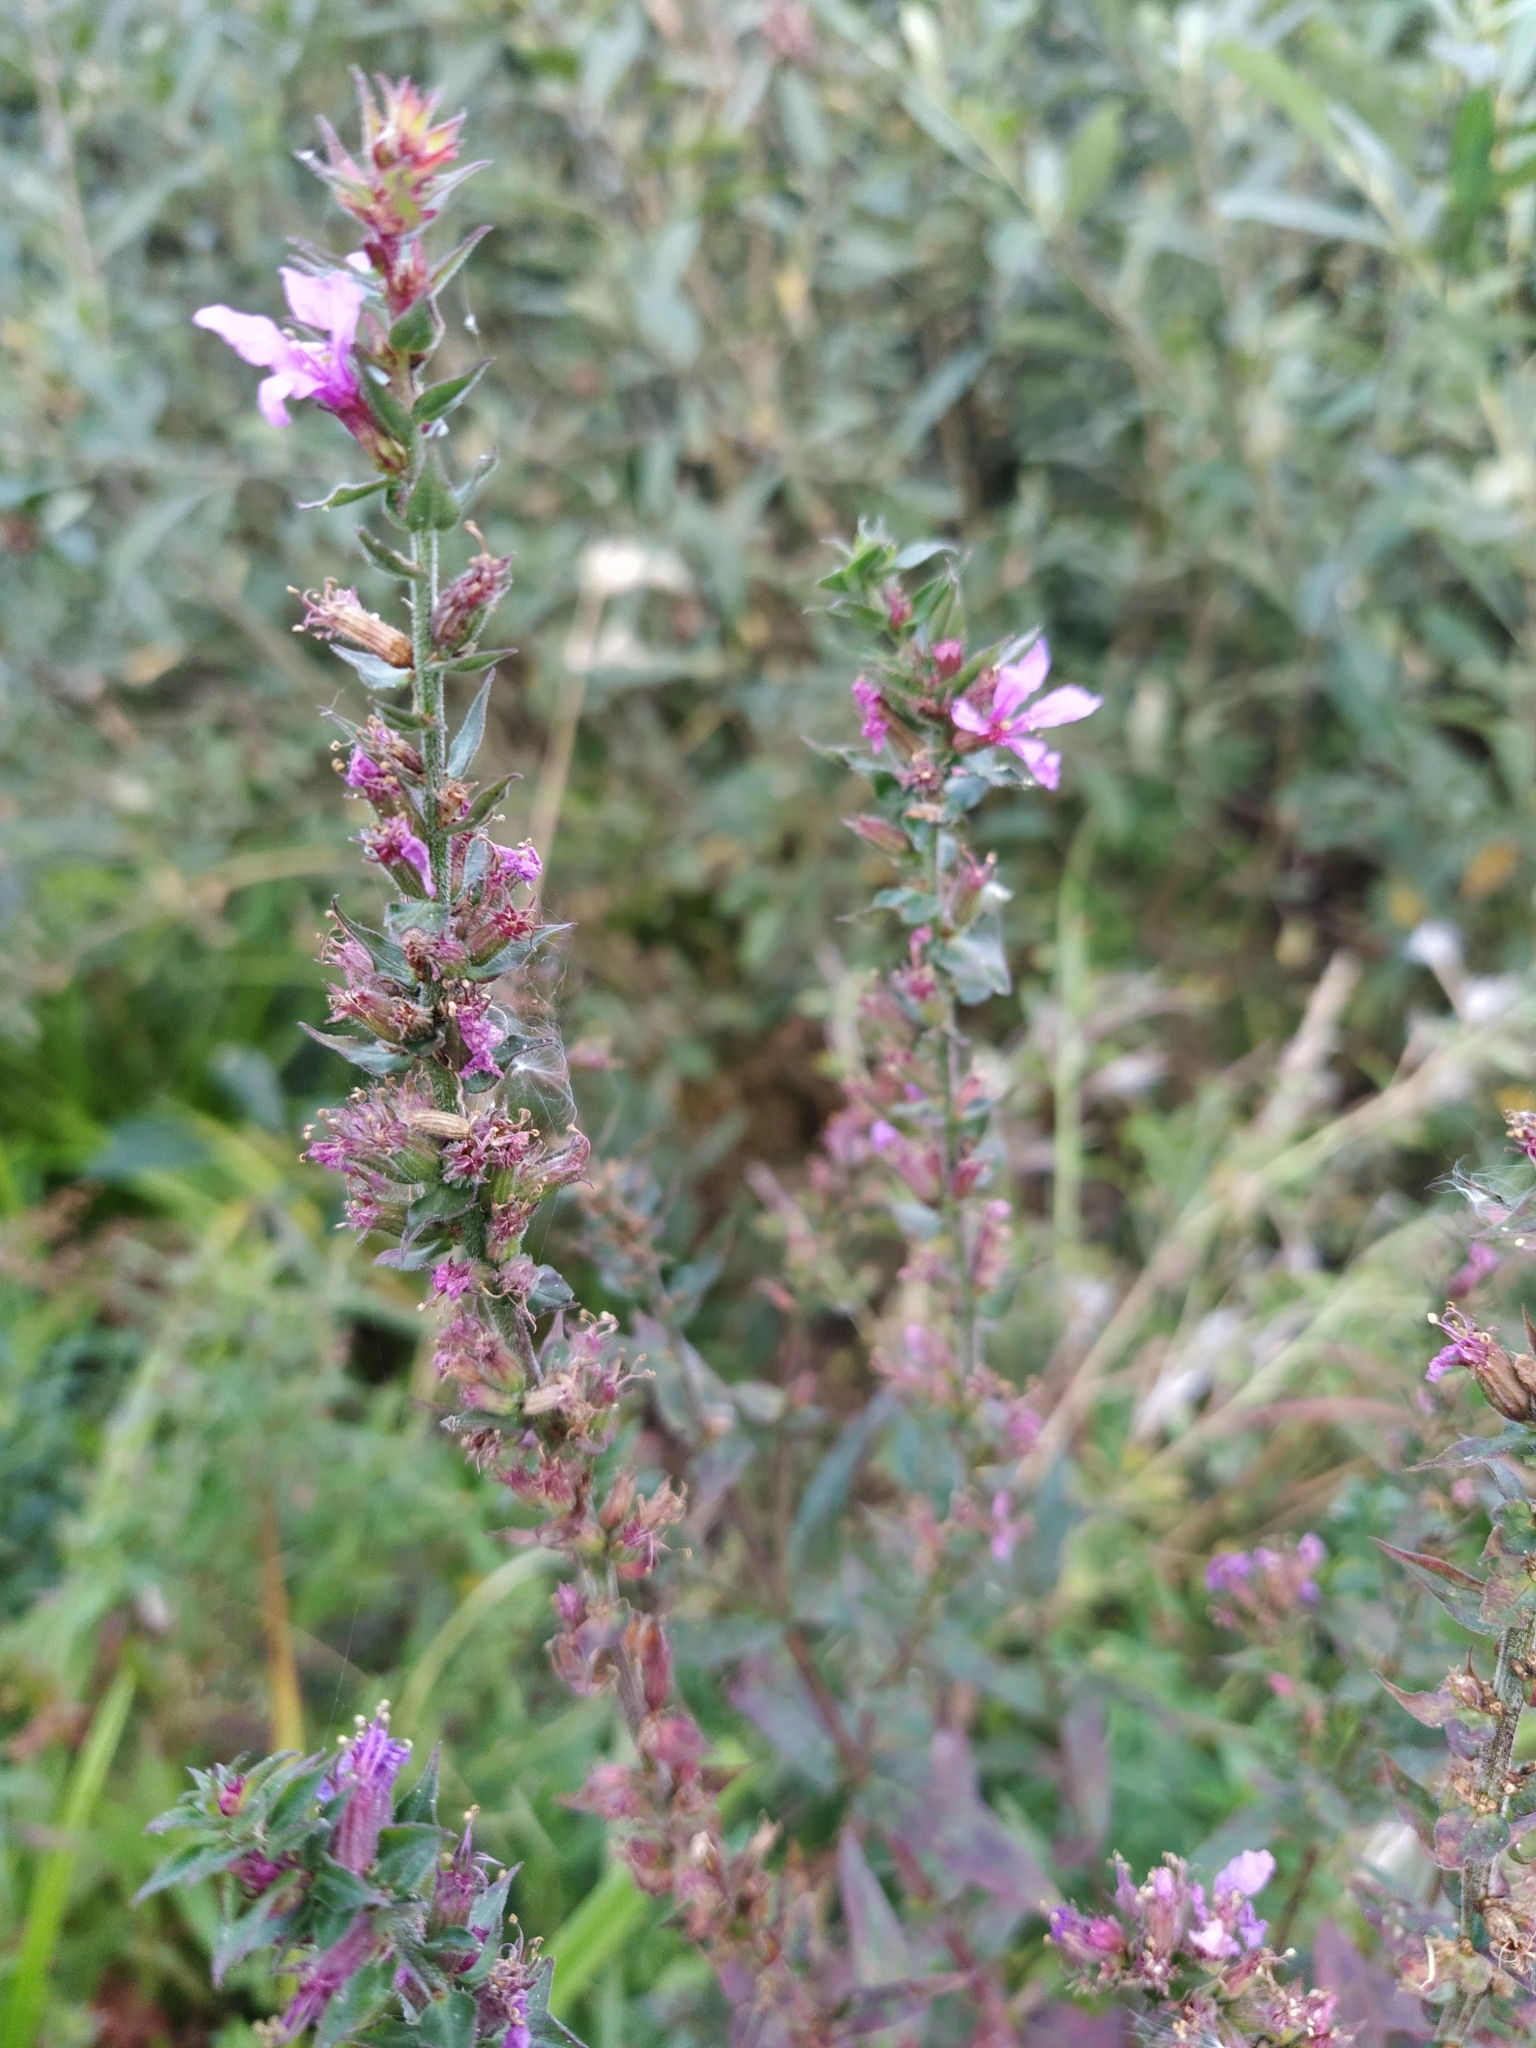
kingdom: Plantae
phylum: Tracheophyta
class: Magnoliopsida
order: Myrtales
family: Lythraceae
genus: Lythrum
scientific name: Lythrum salicaria
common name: Purple loosestrife
